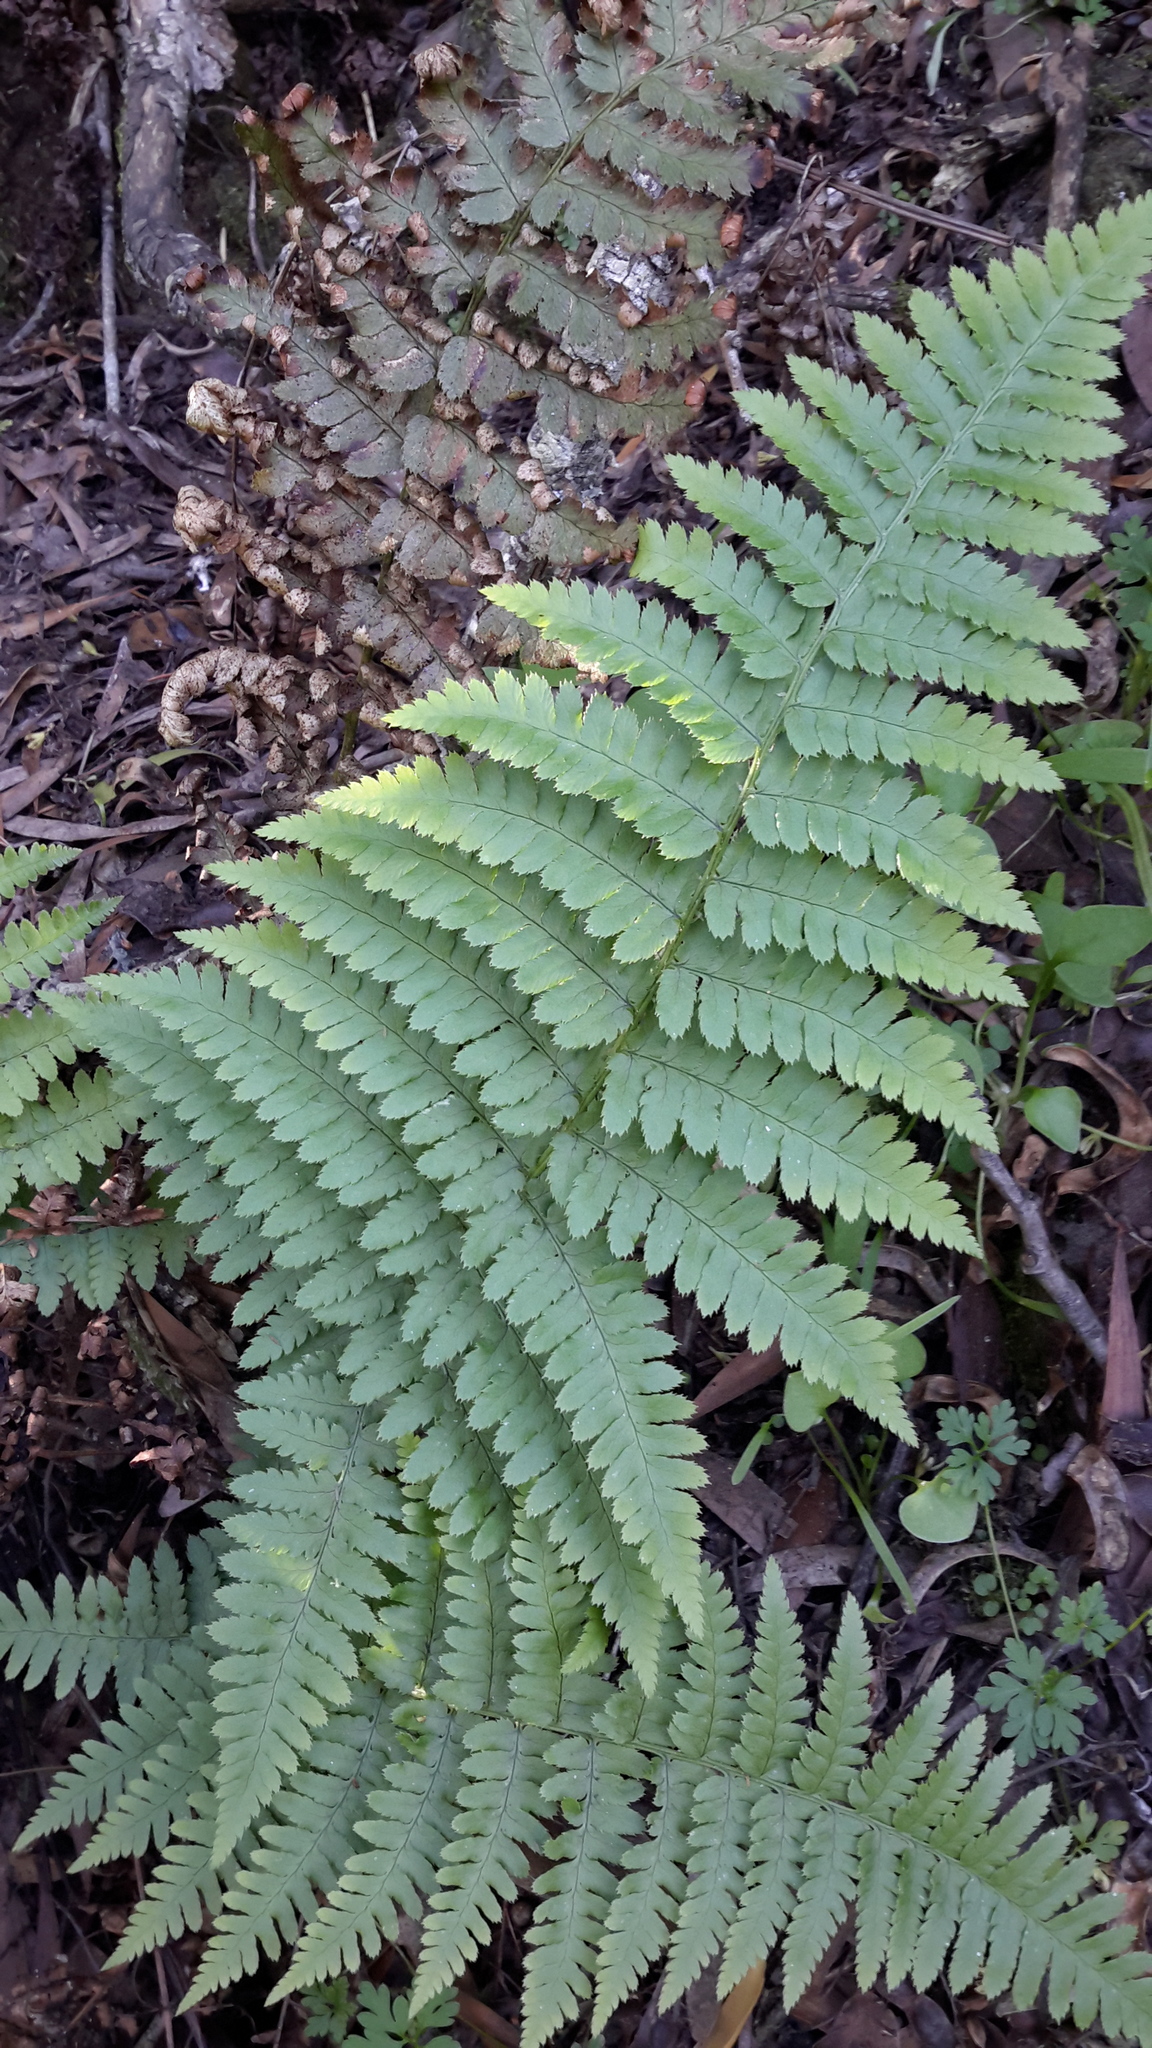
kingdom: Plantae
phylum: Tracheophyta
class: Polypodiopsida
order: Polypodiales
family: Dryopteridaceae
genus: Dryopteris
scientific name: Dryopteris arguta
